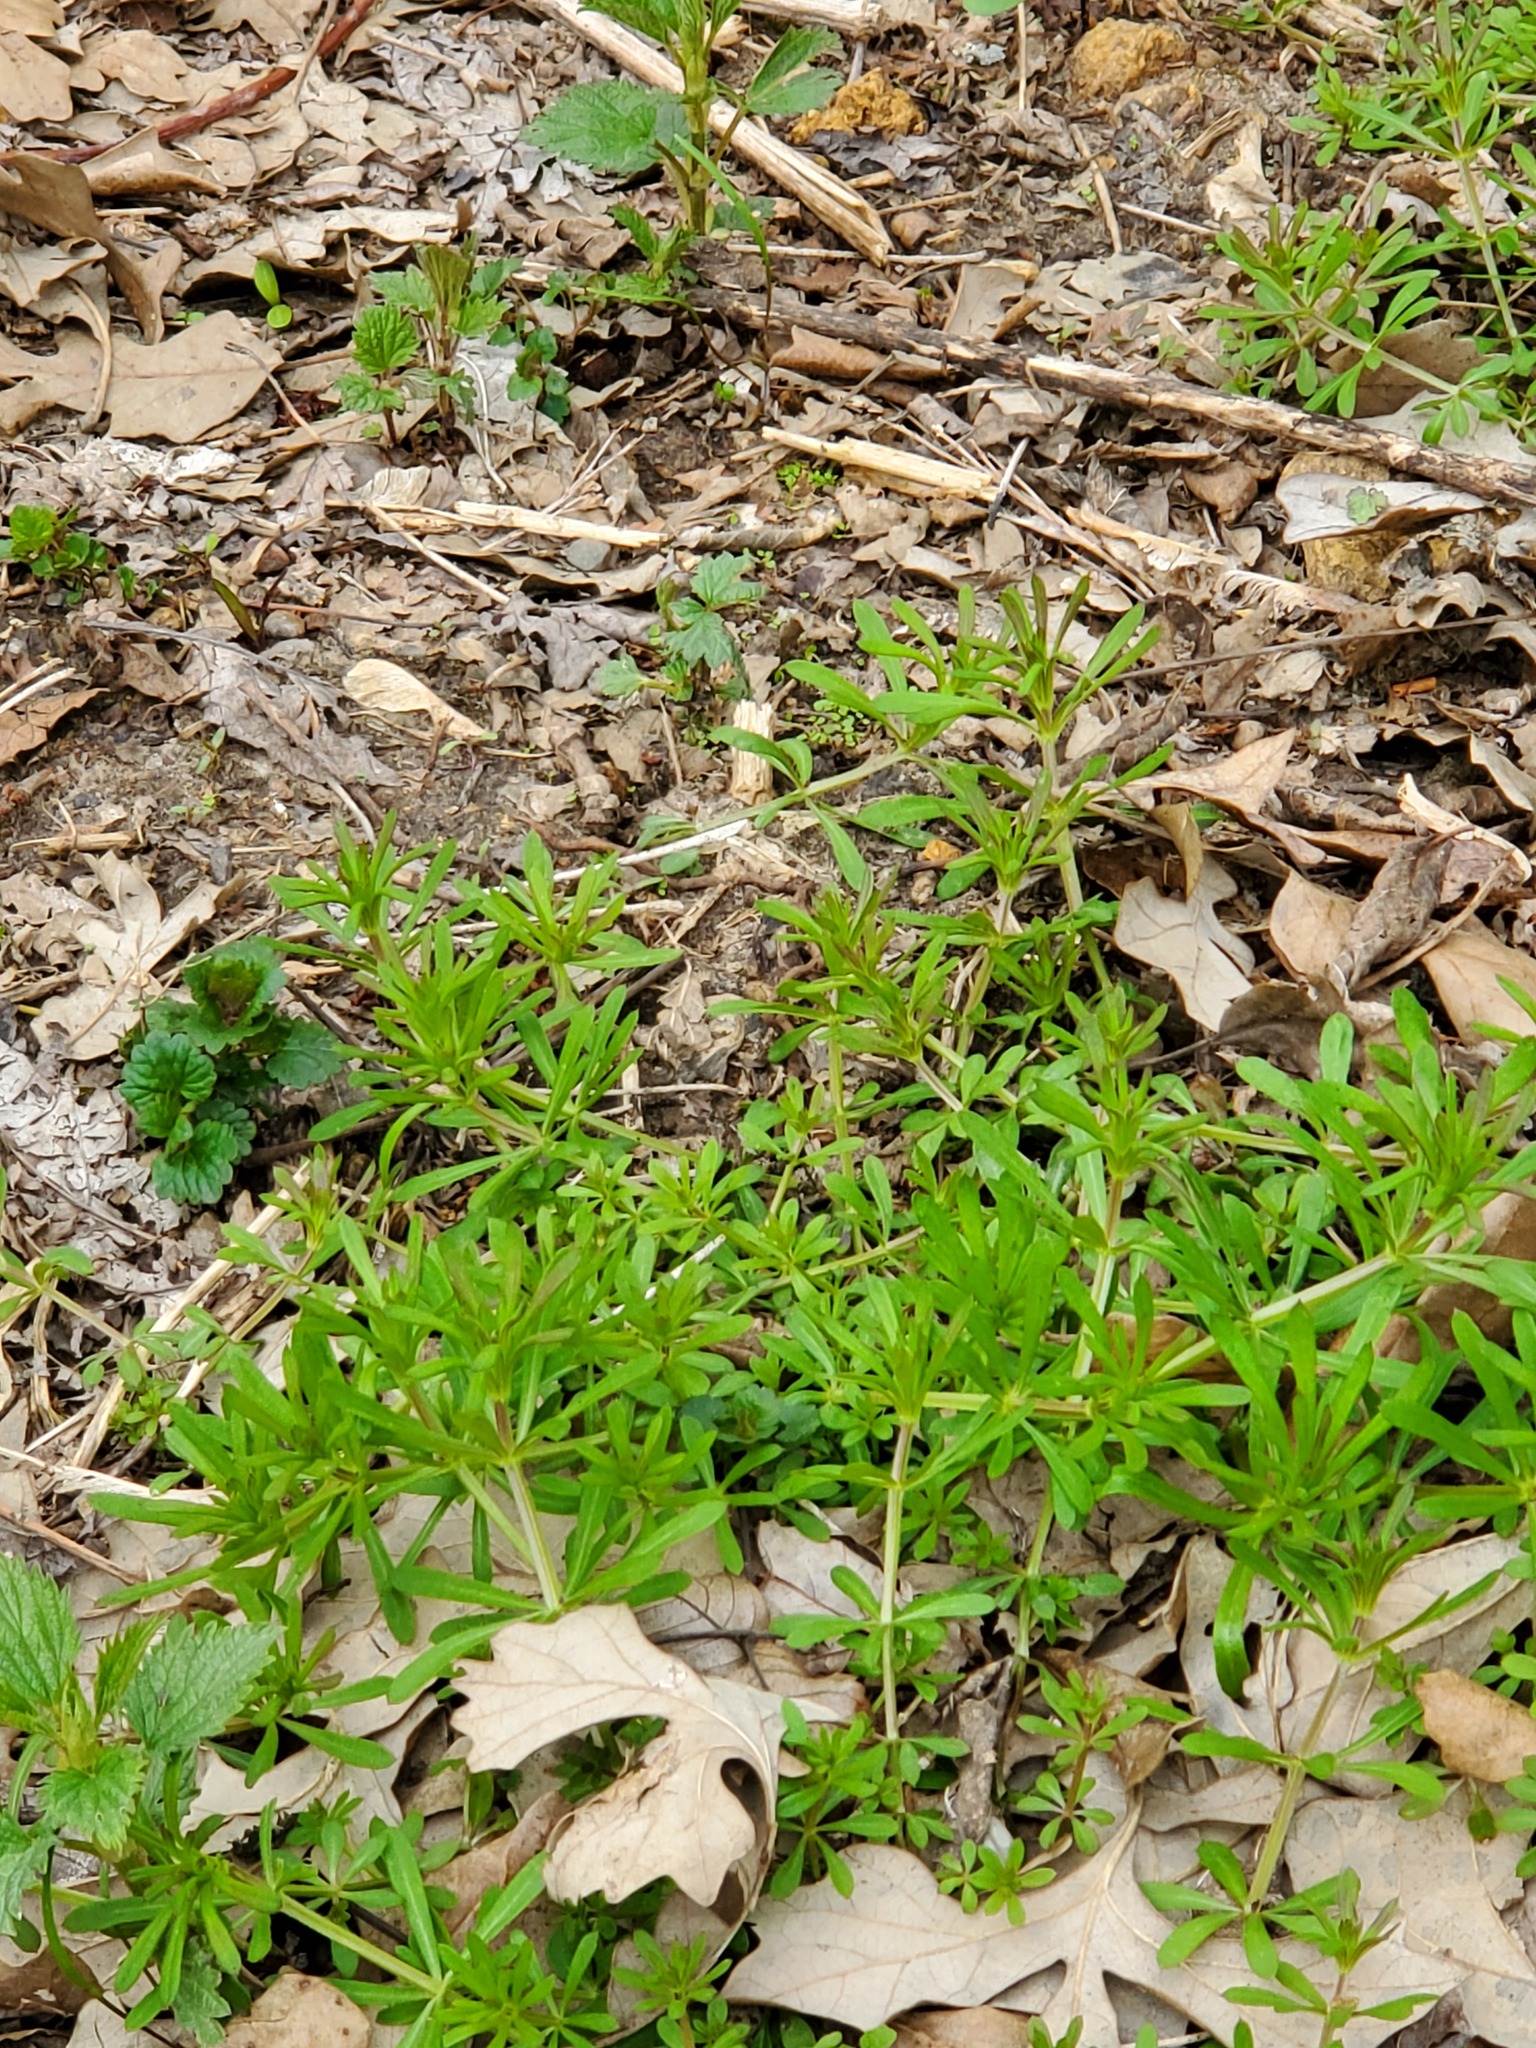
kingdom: Plantae
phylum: Tracheophyta
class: Magnoliopsida
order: Gentianales
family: Rubiaceae
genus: Galium
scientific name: Galium aparine
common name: Cleavers
